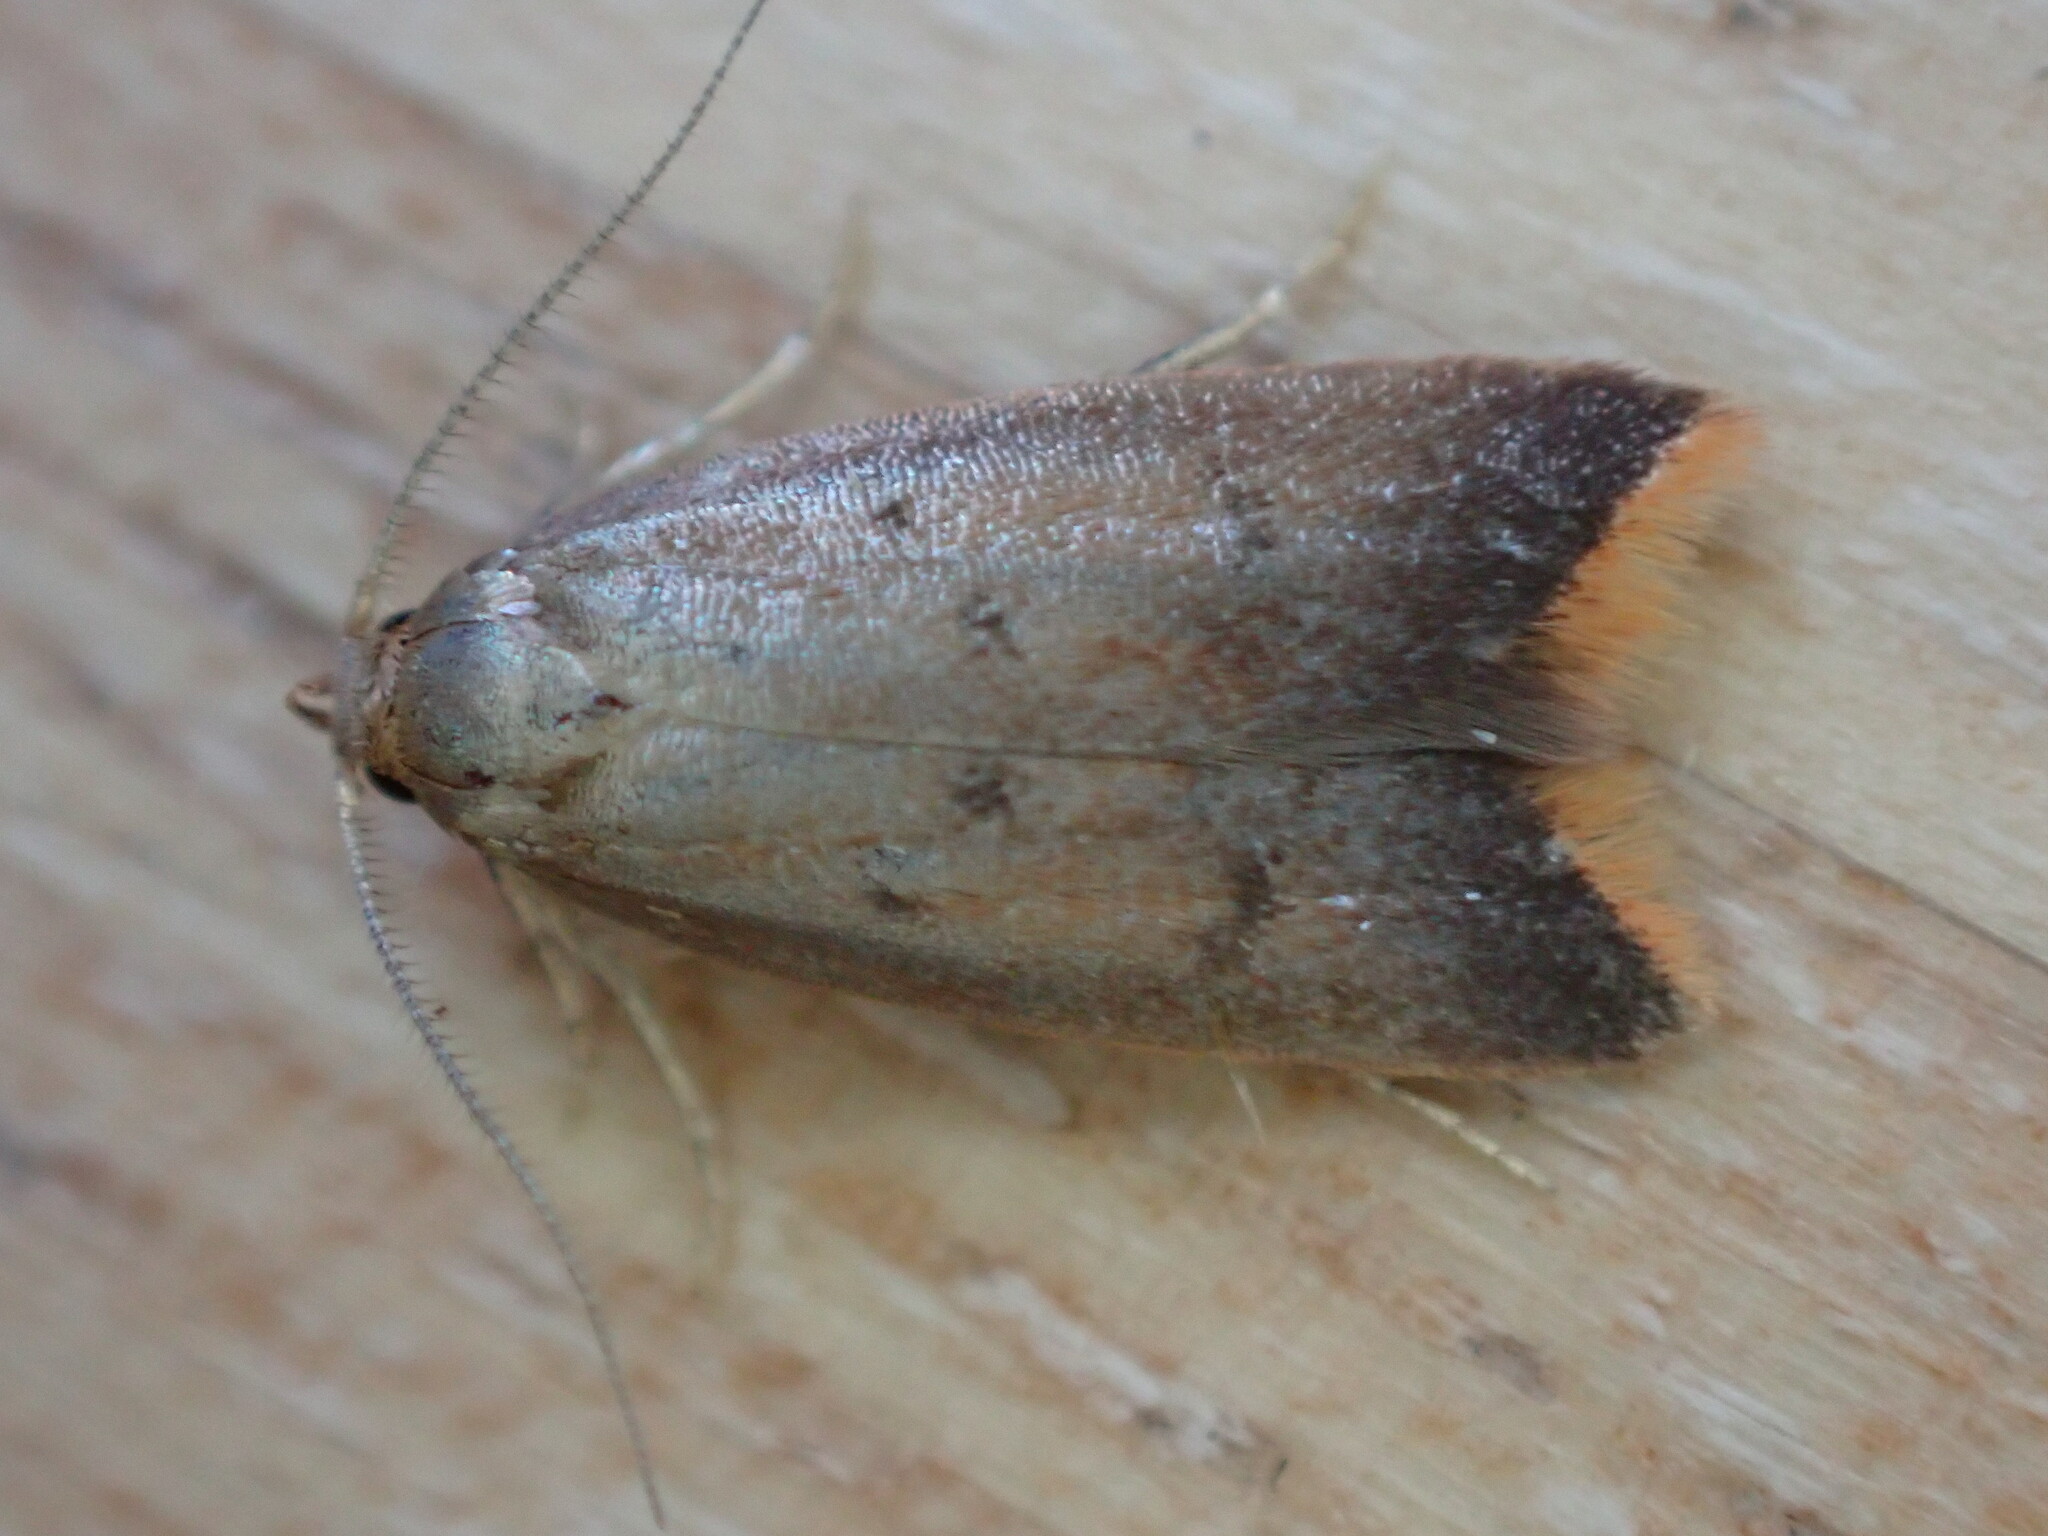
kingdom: Animalia
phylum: Arthropoda
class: Insecta
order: Lepidoptera
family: Oecophoridae
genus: Tachystola
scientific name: Tachystola acroxantha
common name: Ruddy streak
